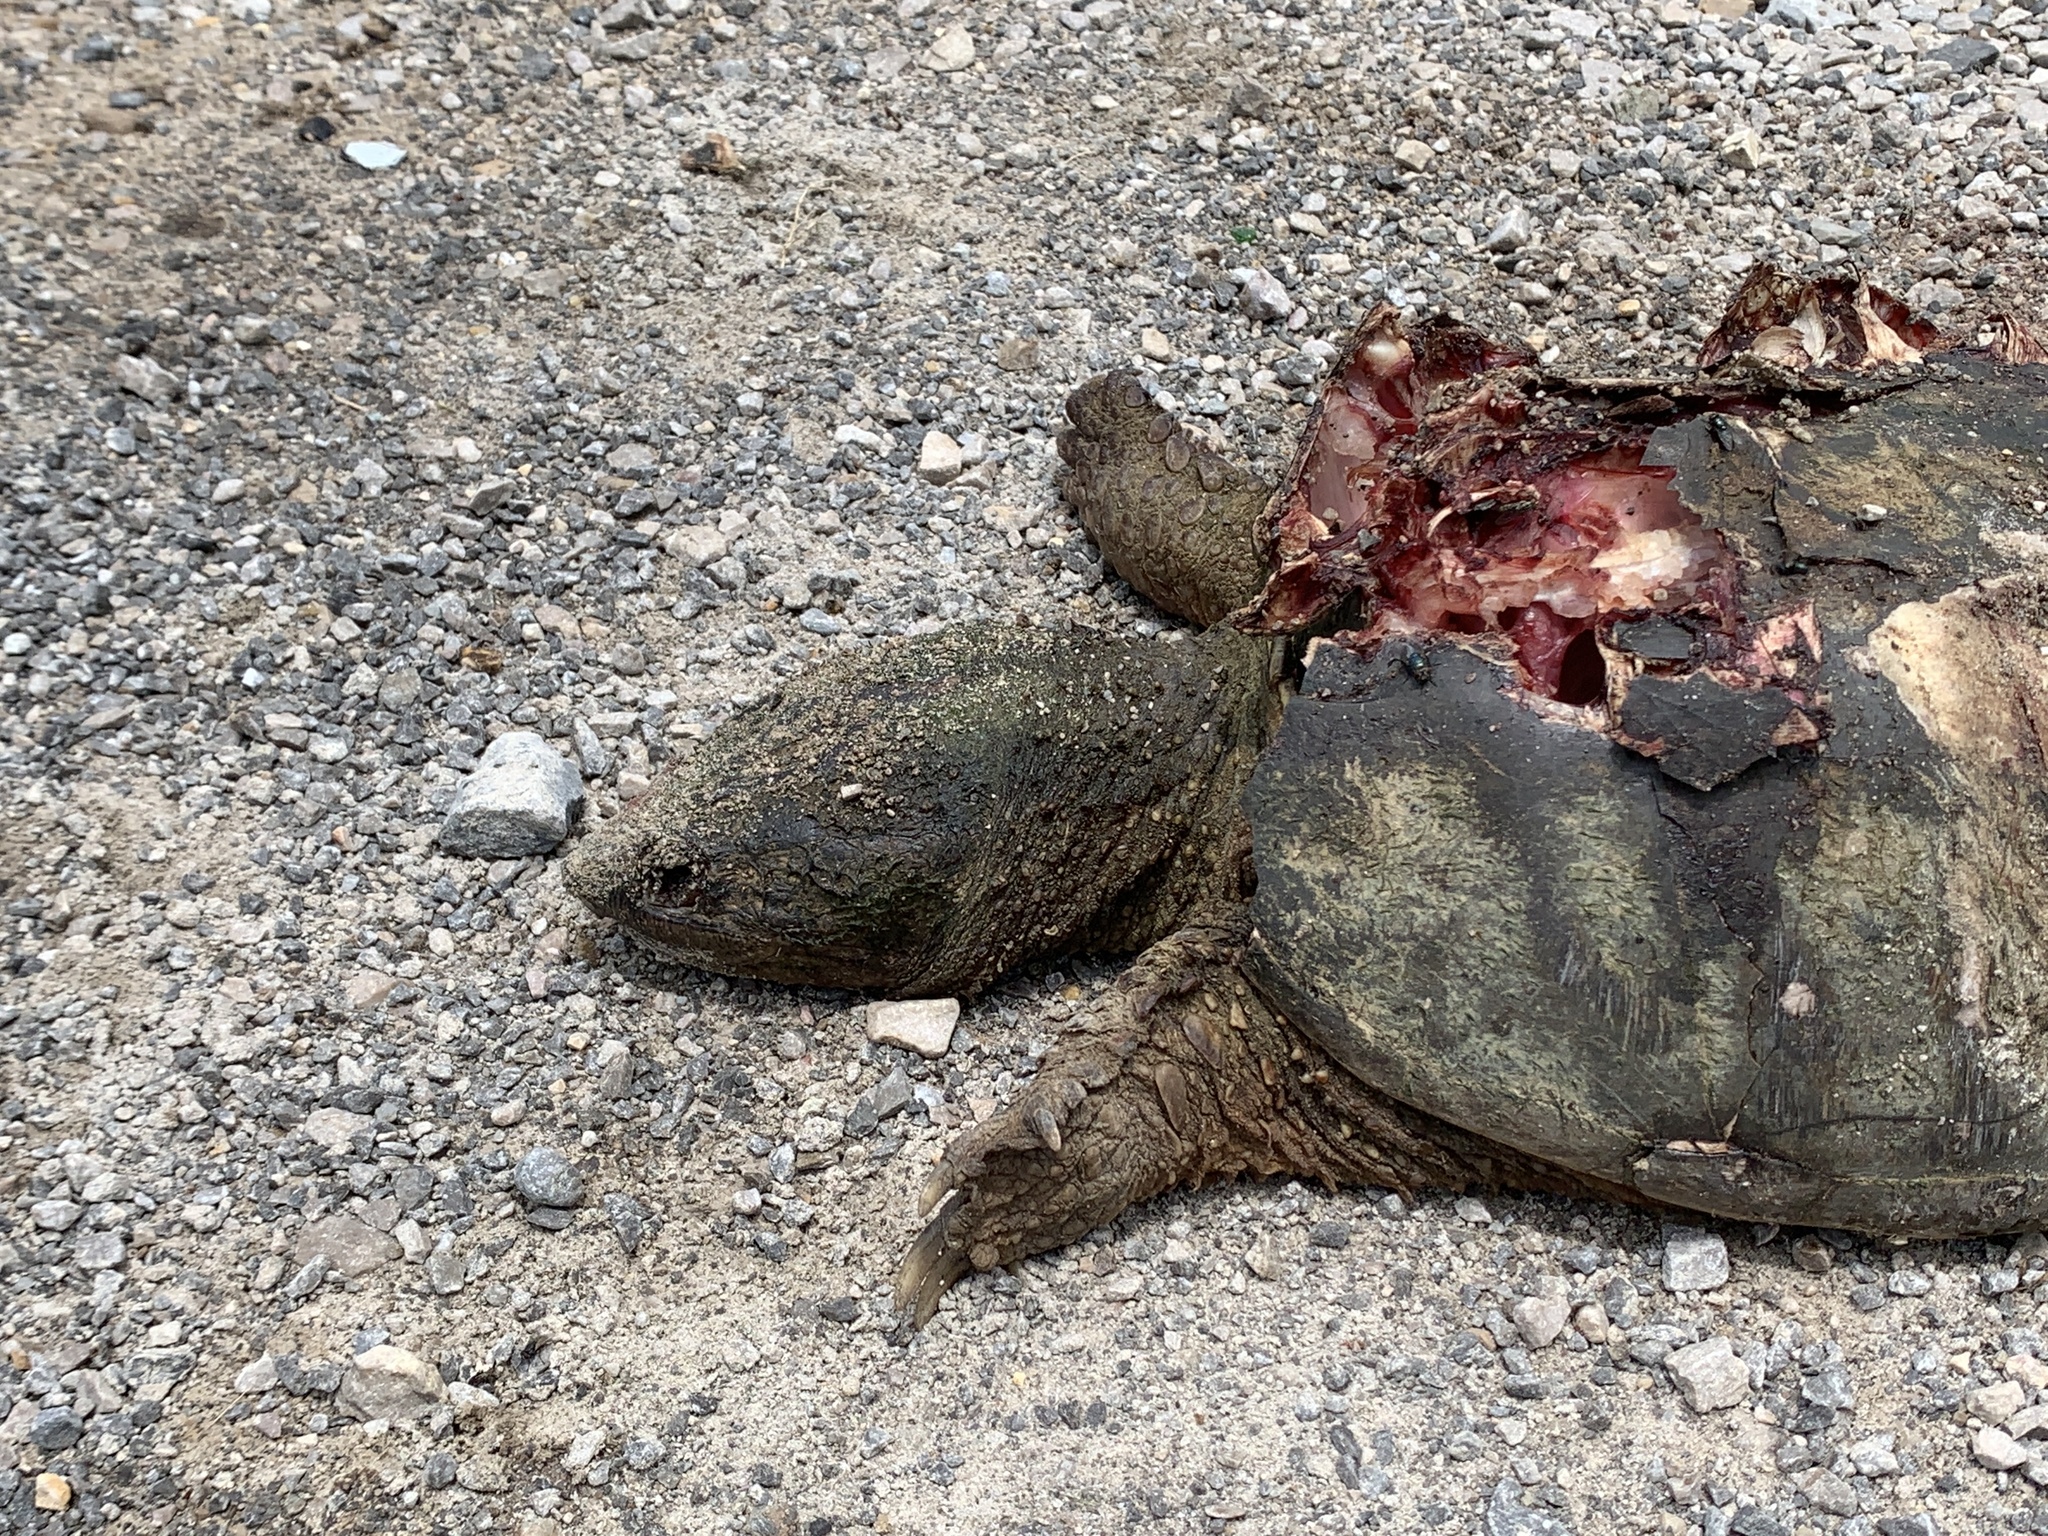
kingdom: Animalia
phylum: Chordata
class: Testudines
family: Chelydridae
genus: Chelydra
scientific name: Chelydra serpentina
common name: Common snapping turtle
